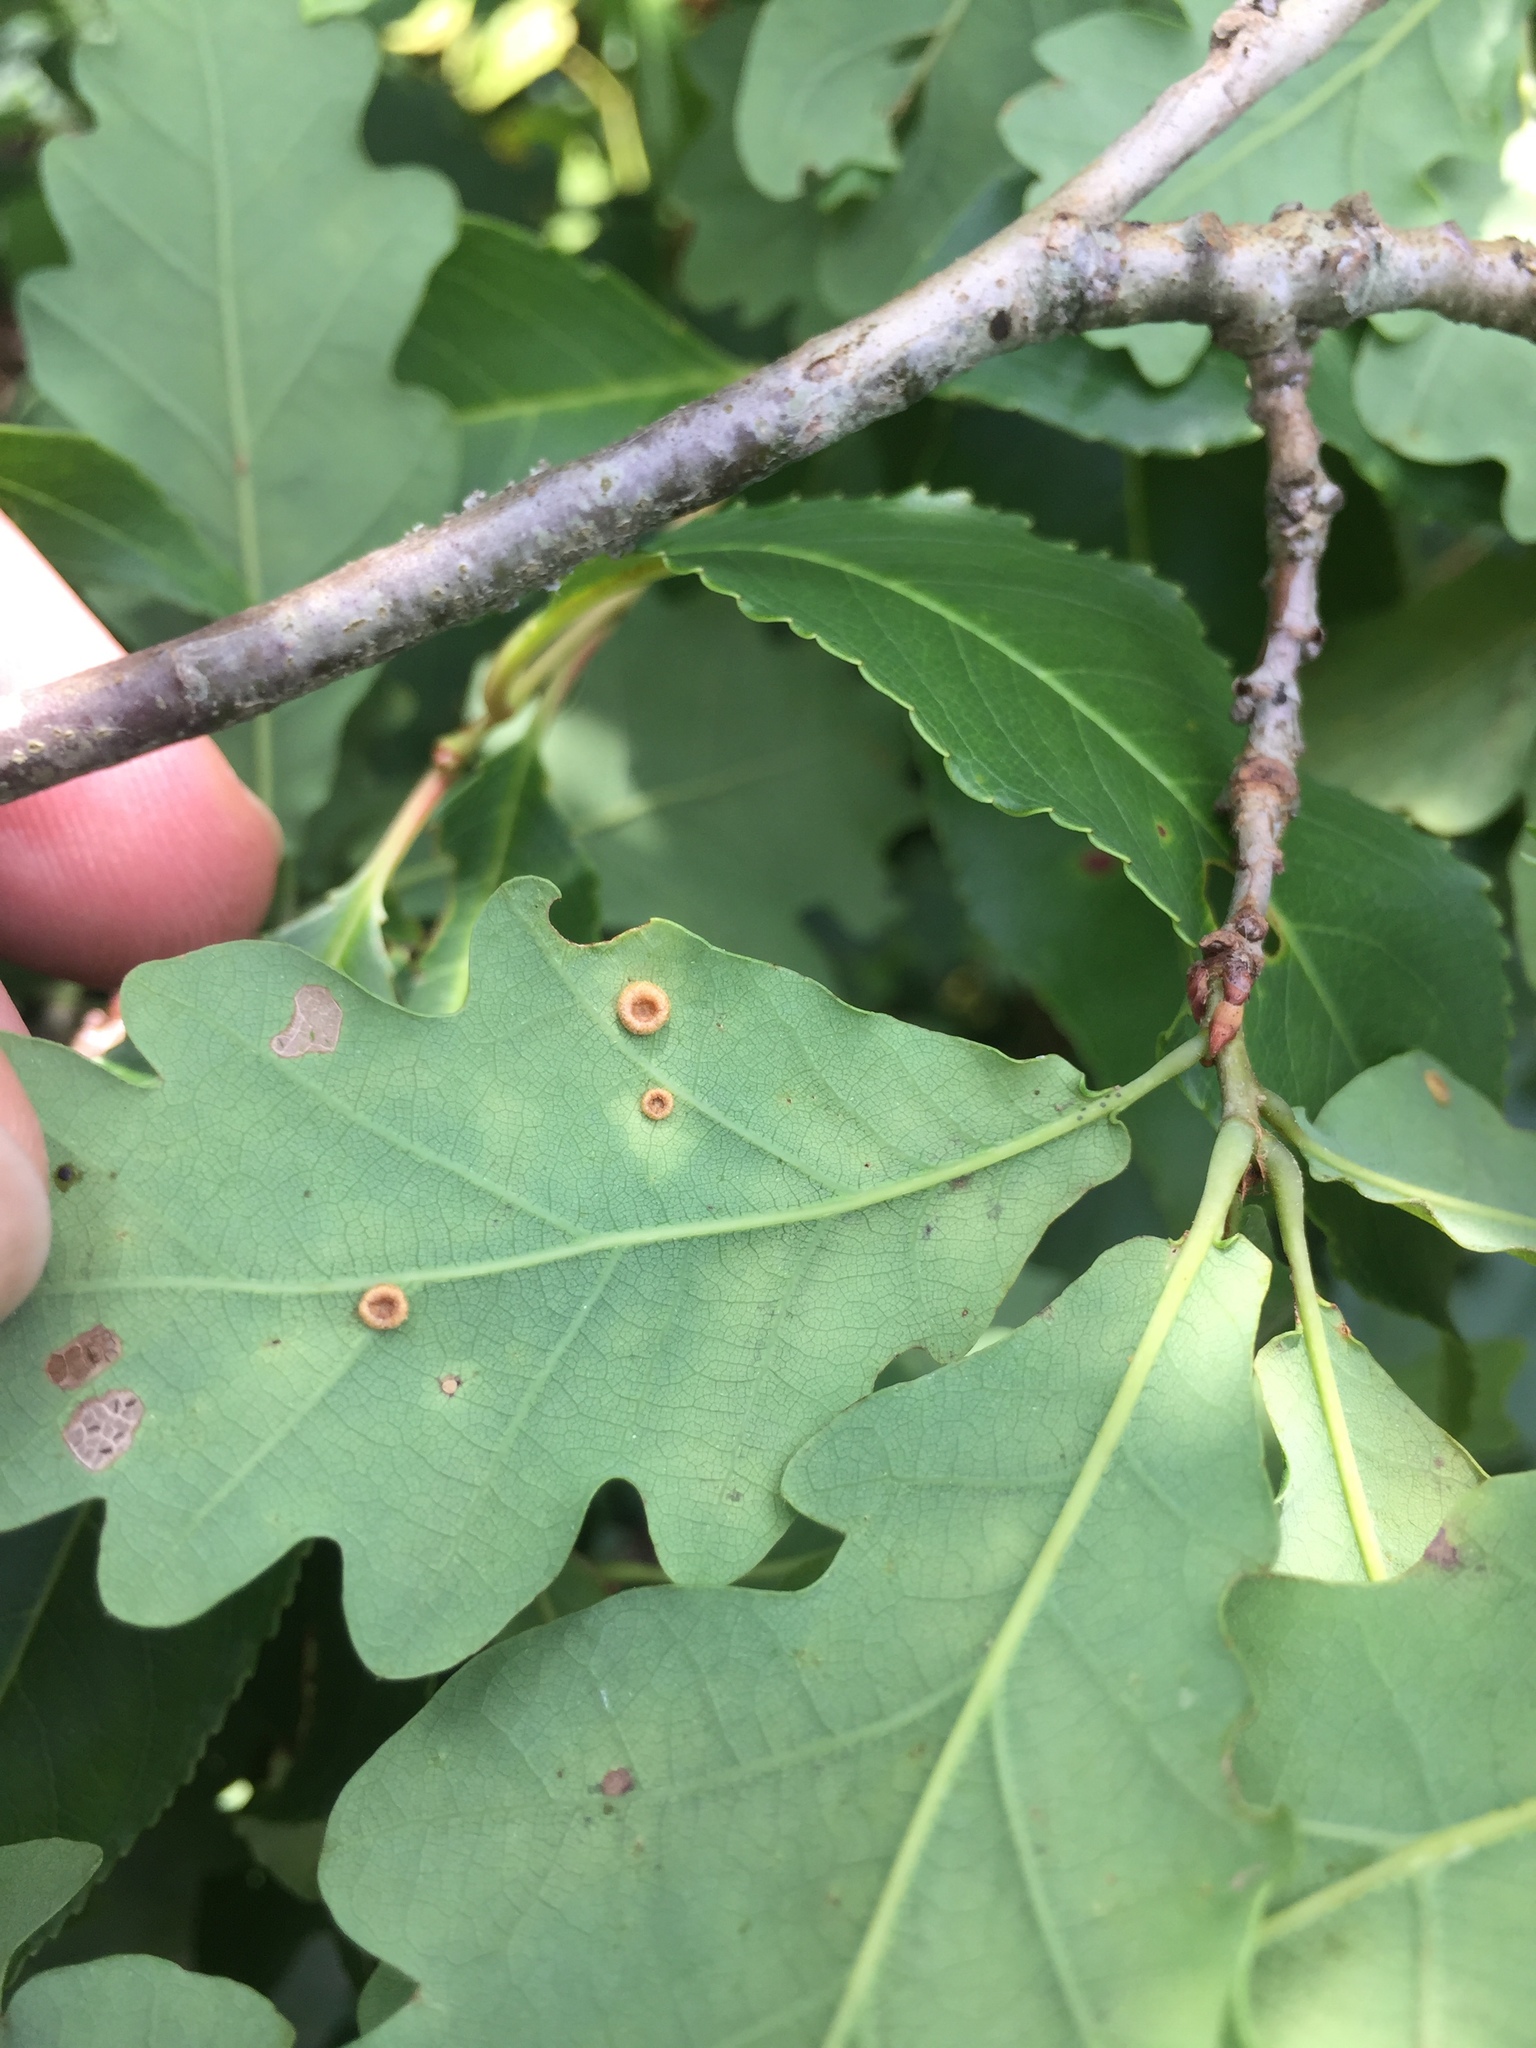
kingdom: Animalia
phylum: Arthropoda
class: Insecta
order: Hymenoptera
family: Cynipidae
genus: Neuroterus
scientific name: Neuroterus numismalis
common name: Silk-button spangle gall
